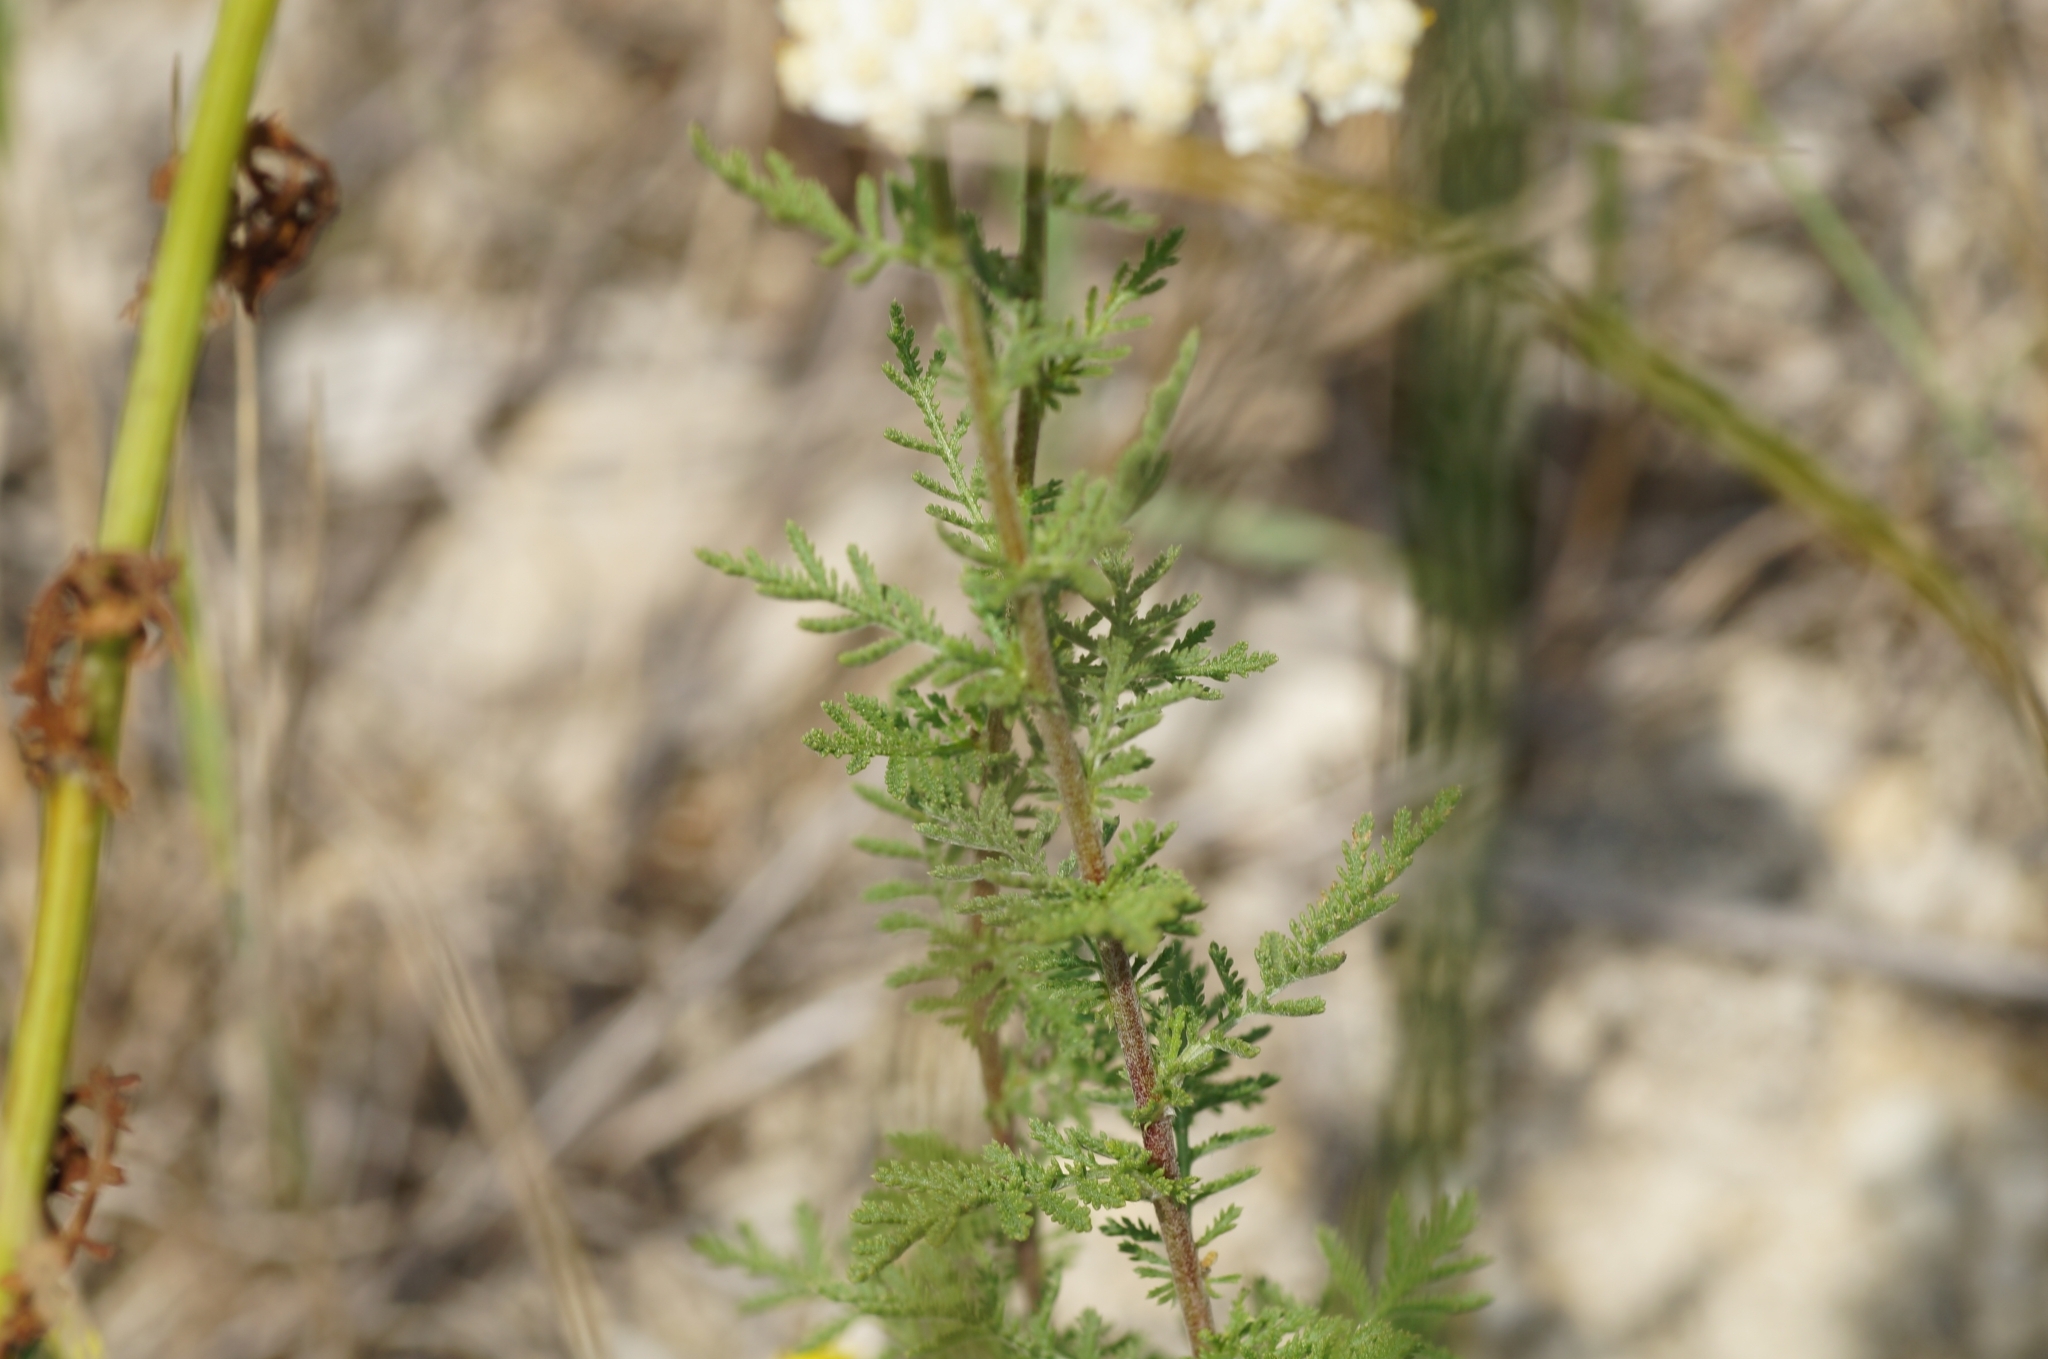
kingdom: Plantae
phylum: Tracheophyta
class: Magnoliopsida
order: Asterales
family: Asteraceae
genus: Achillea
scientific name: Achillea nobilis
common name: Noble yarrow
